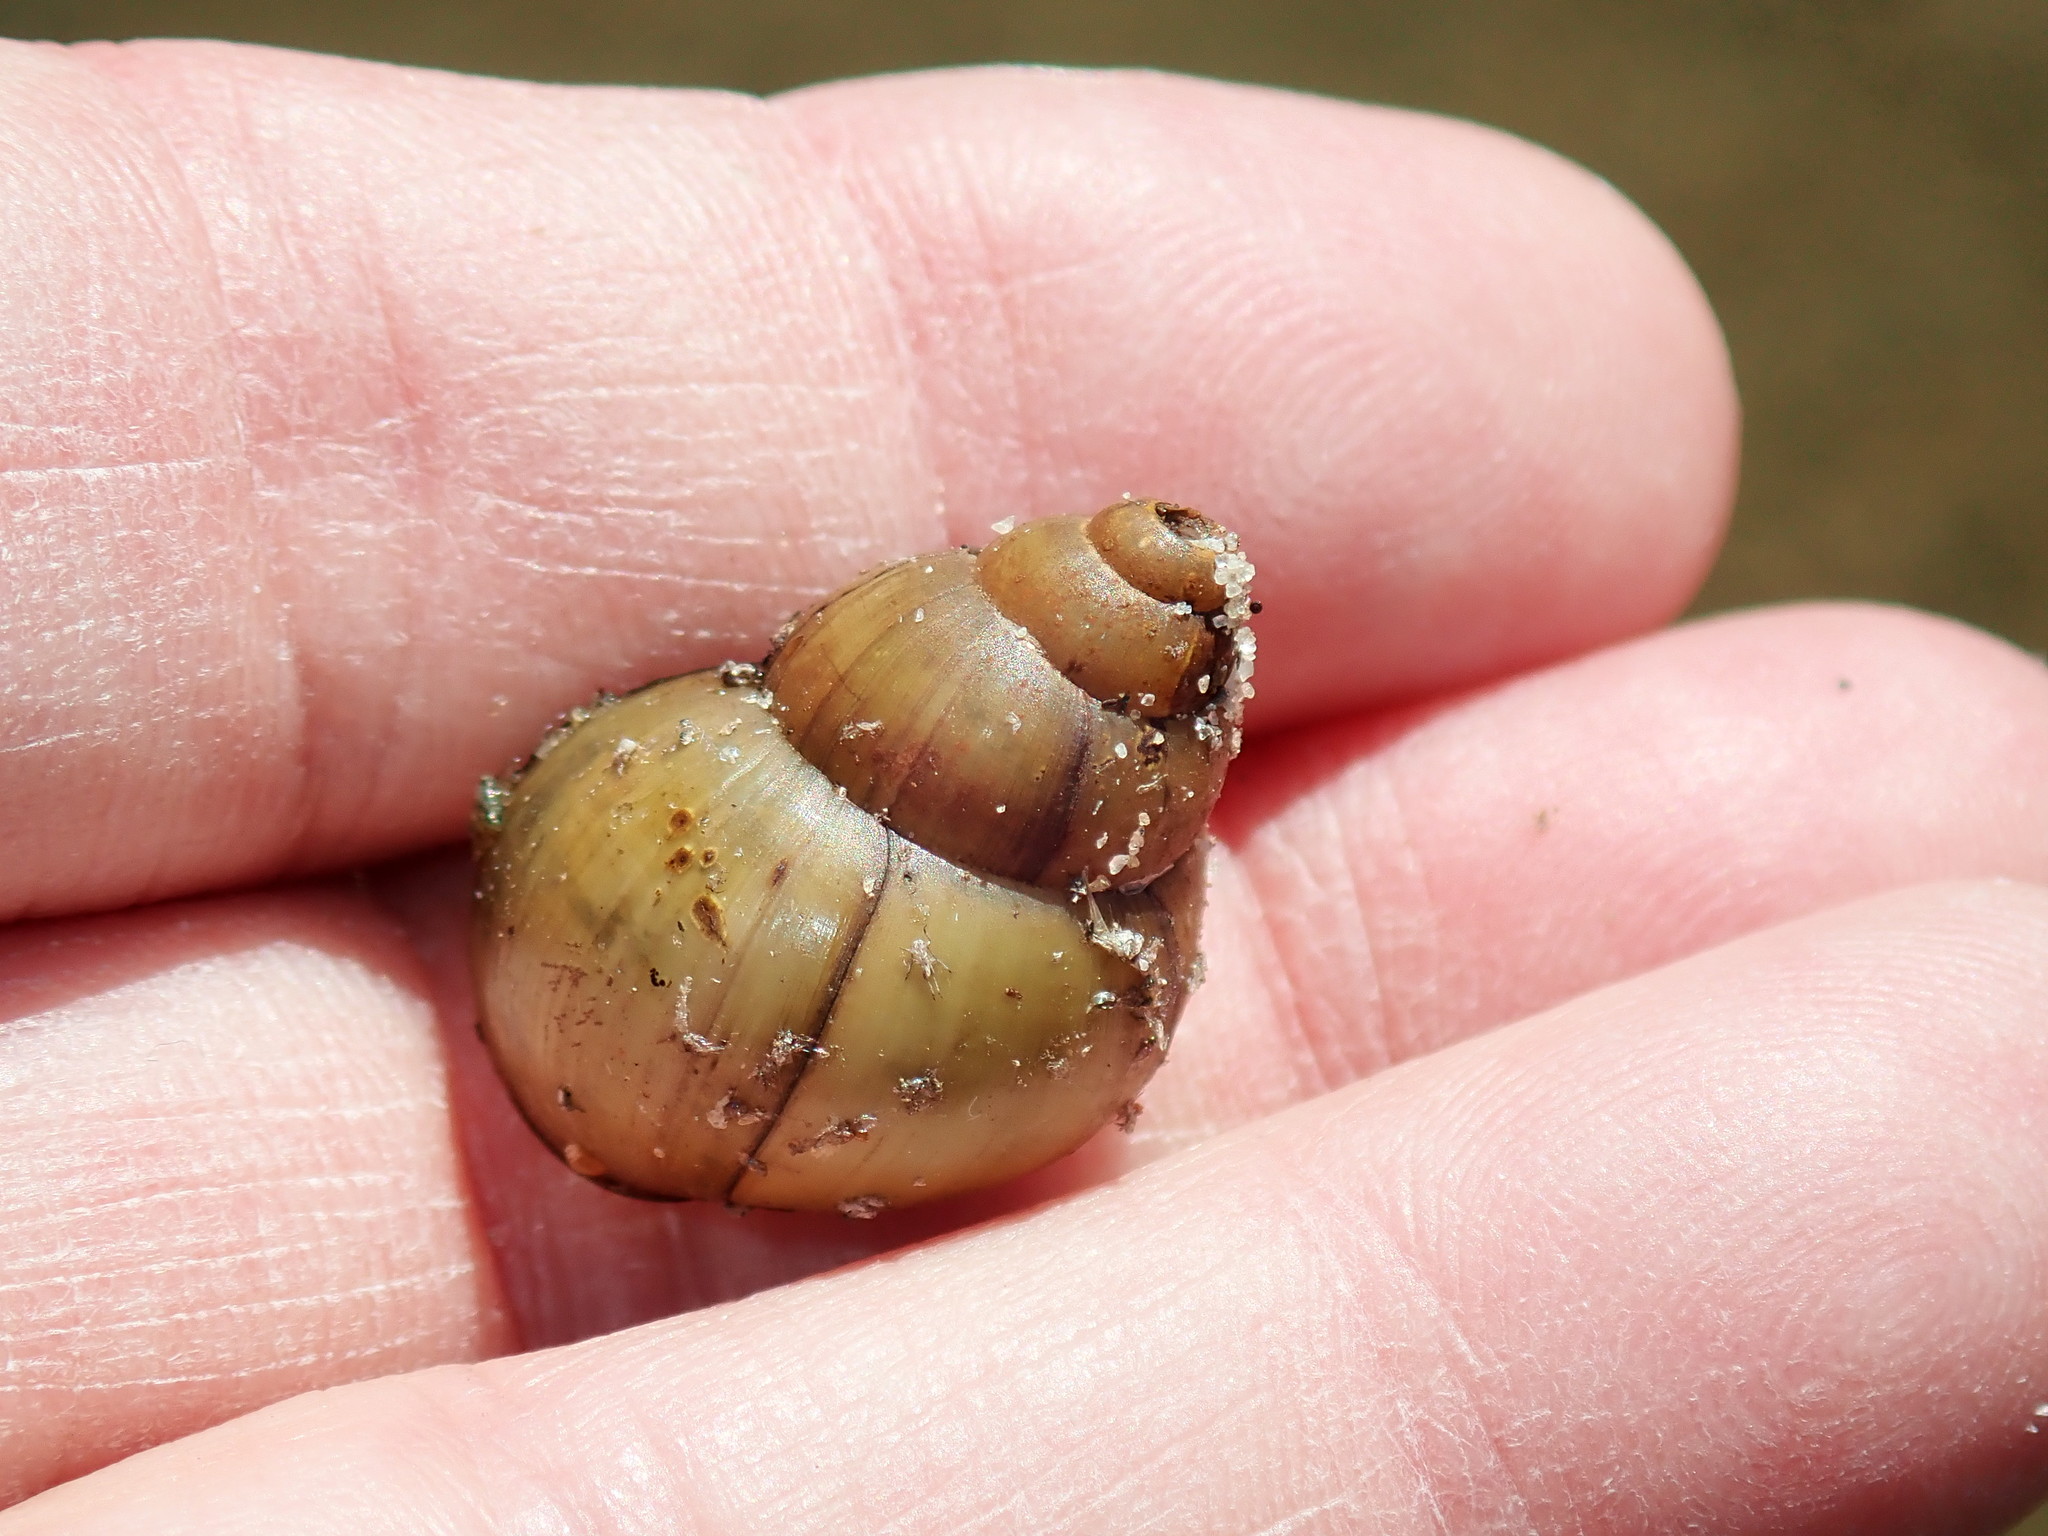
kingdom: Animalia
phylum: Mollusca
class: Gastropoda
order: Architaenioglossa
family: Viviparidae
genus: Campeloma
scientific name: Campeloma decisum
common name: Pointed campeloma
